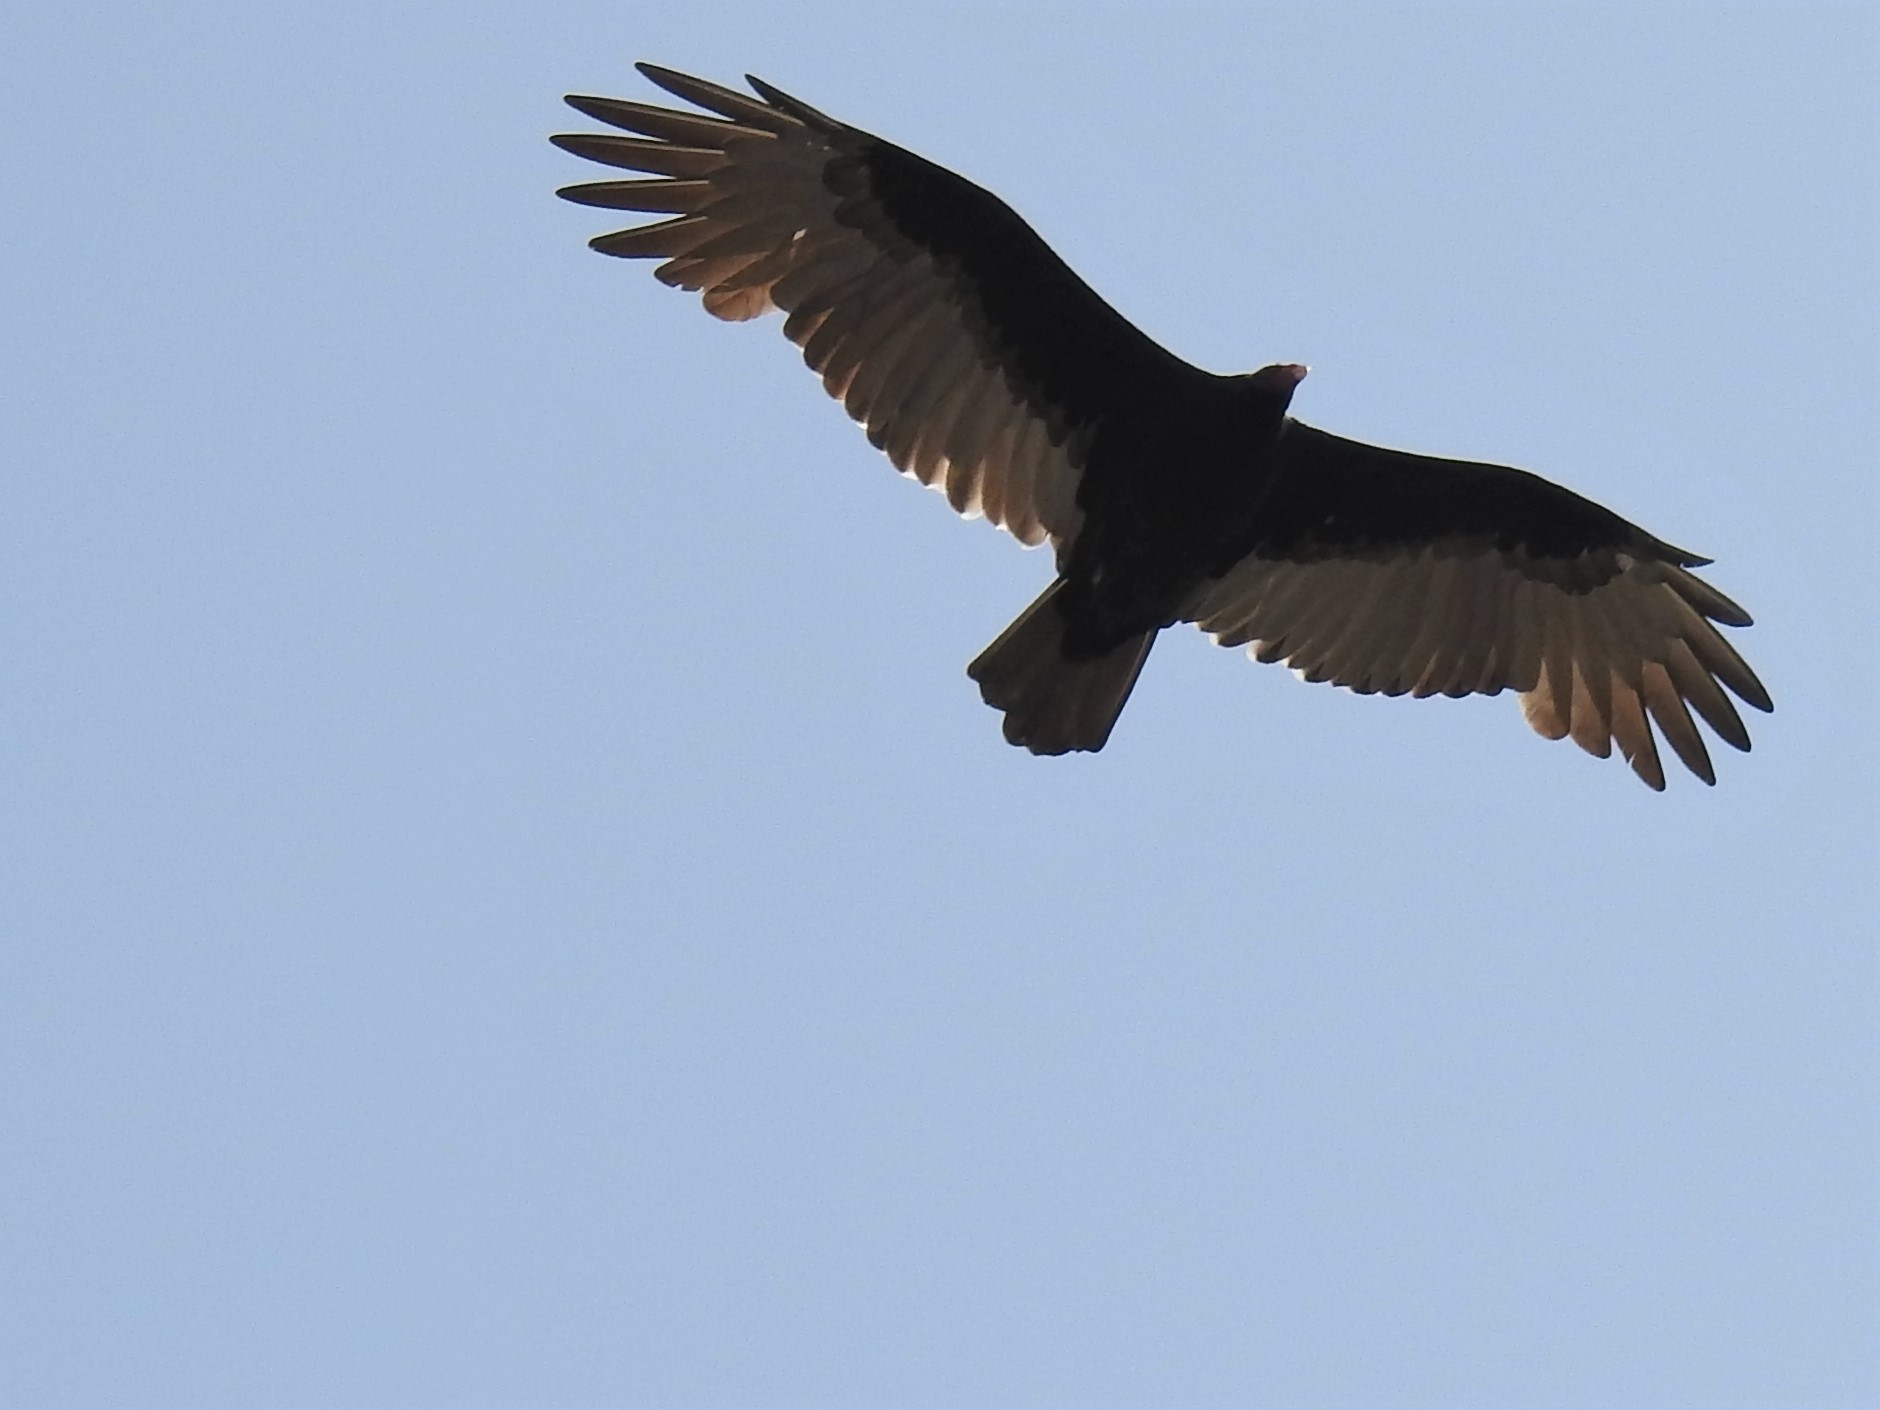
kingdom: Animalia
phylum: Chordata
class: Aves
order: Accipitriformes
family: Cathartidae
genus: Cathartes
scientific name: Cathartes aura
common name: Turkey vulture
